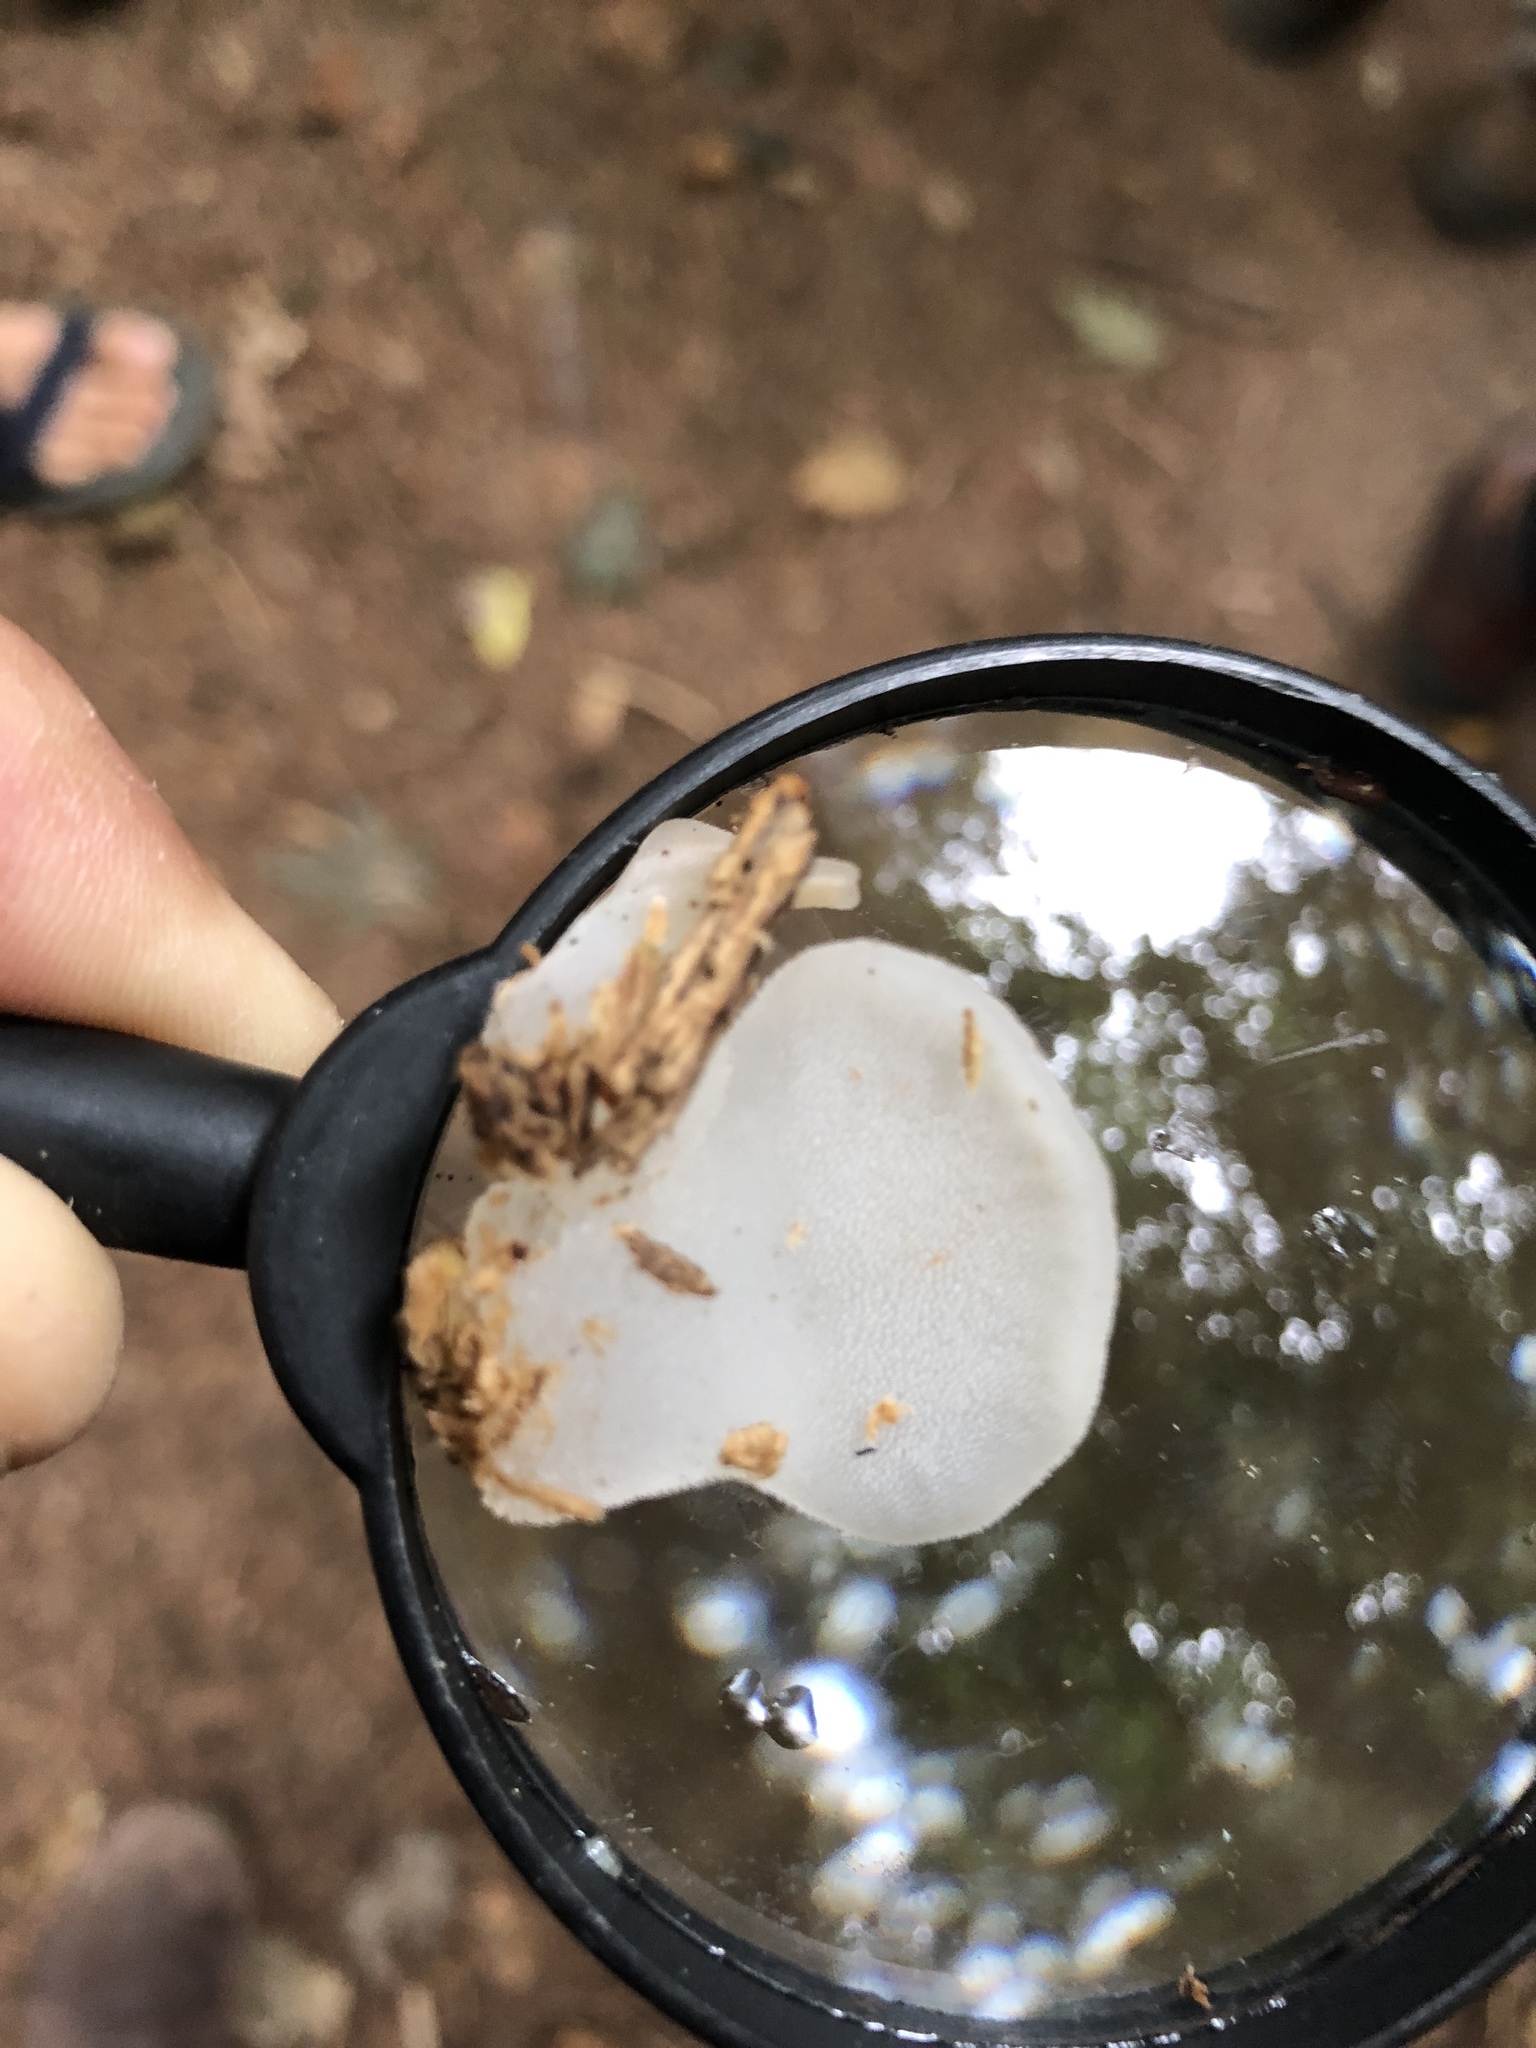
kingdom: Fungi
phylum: Basidiomycota
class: Agaricomycetes
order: Auriculariales
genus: Pseudohydnum
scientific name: Pseudohydnum gelatinosum
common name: Jelly tongue
